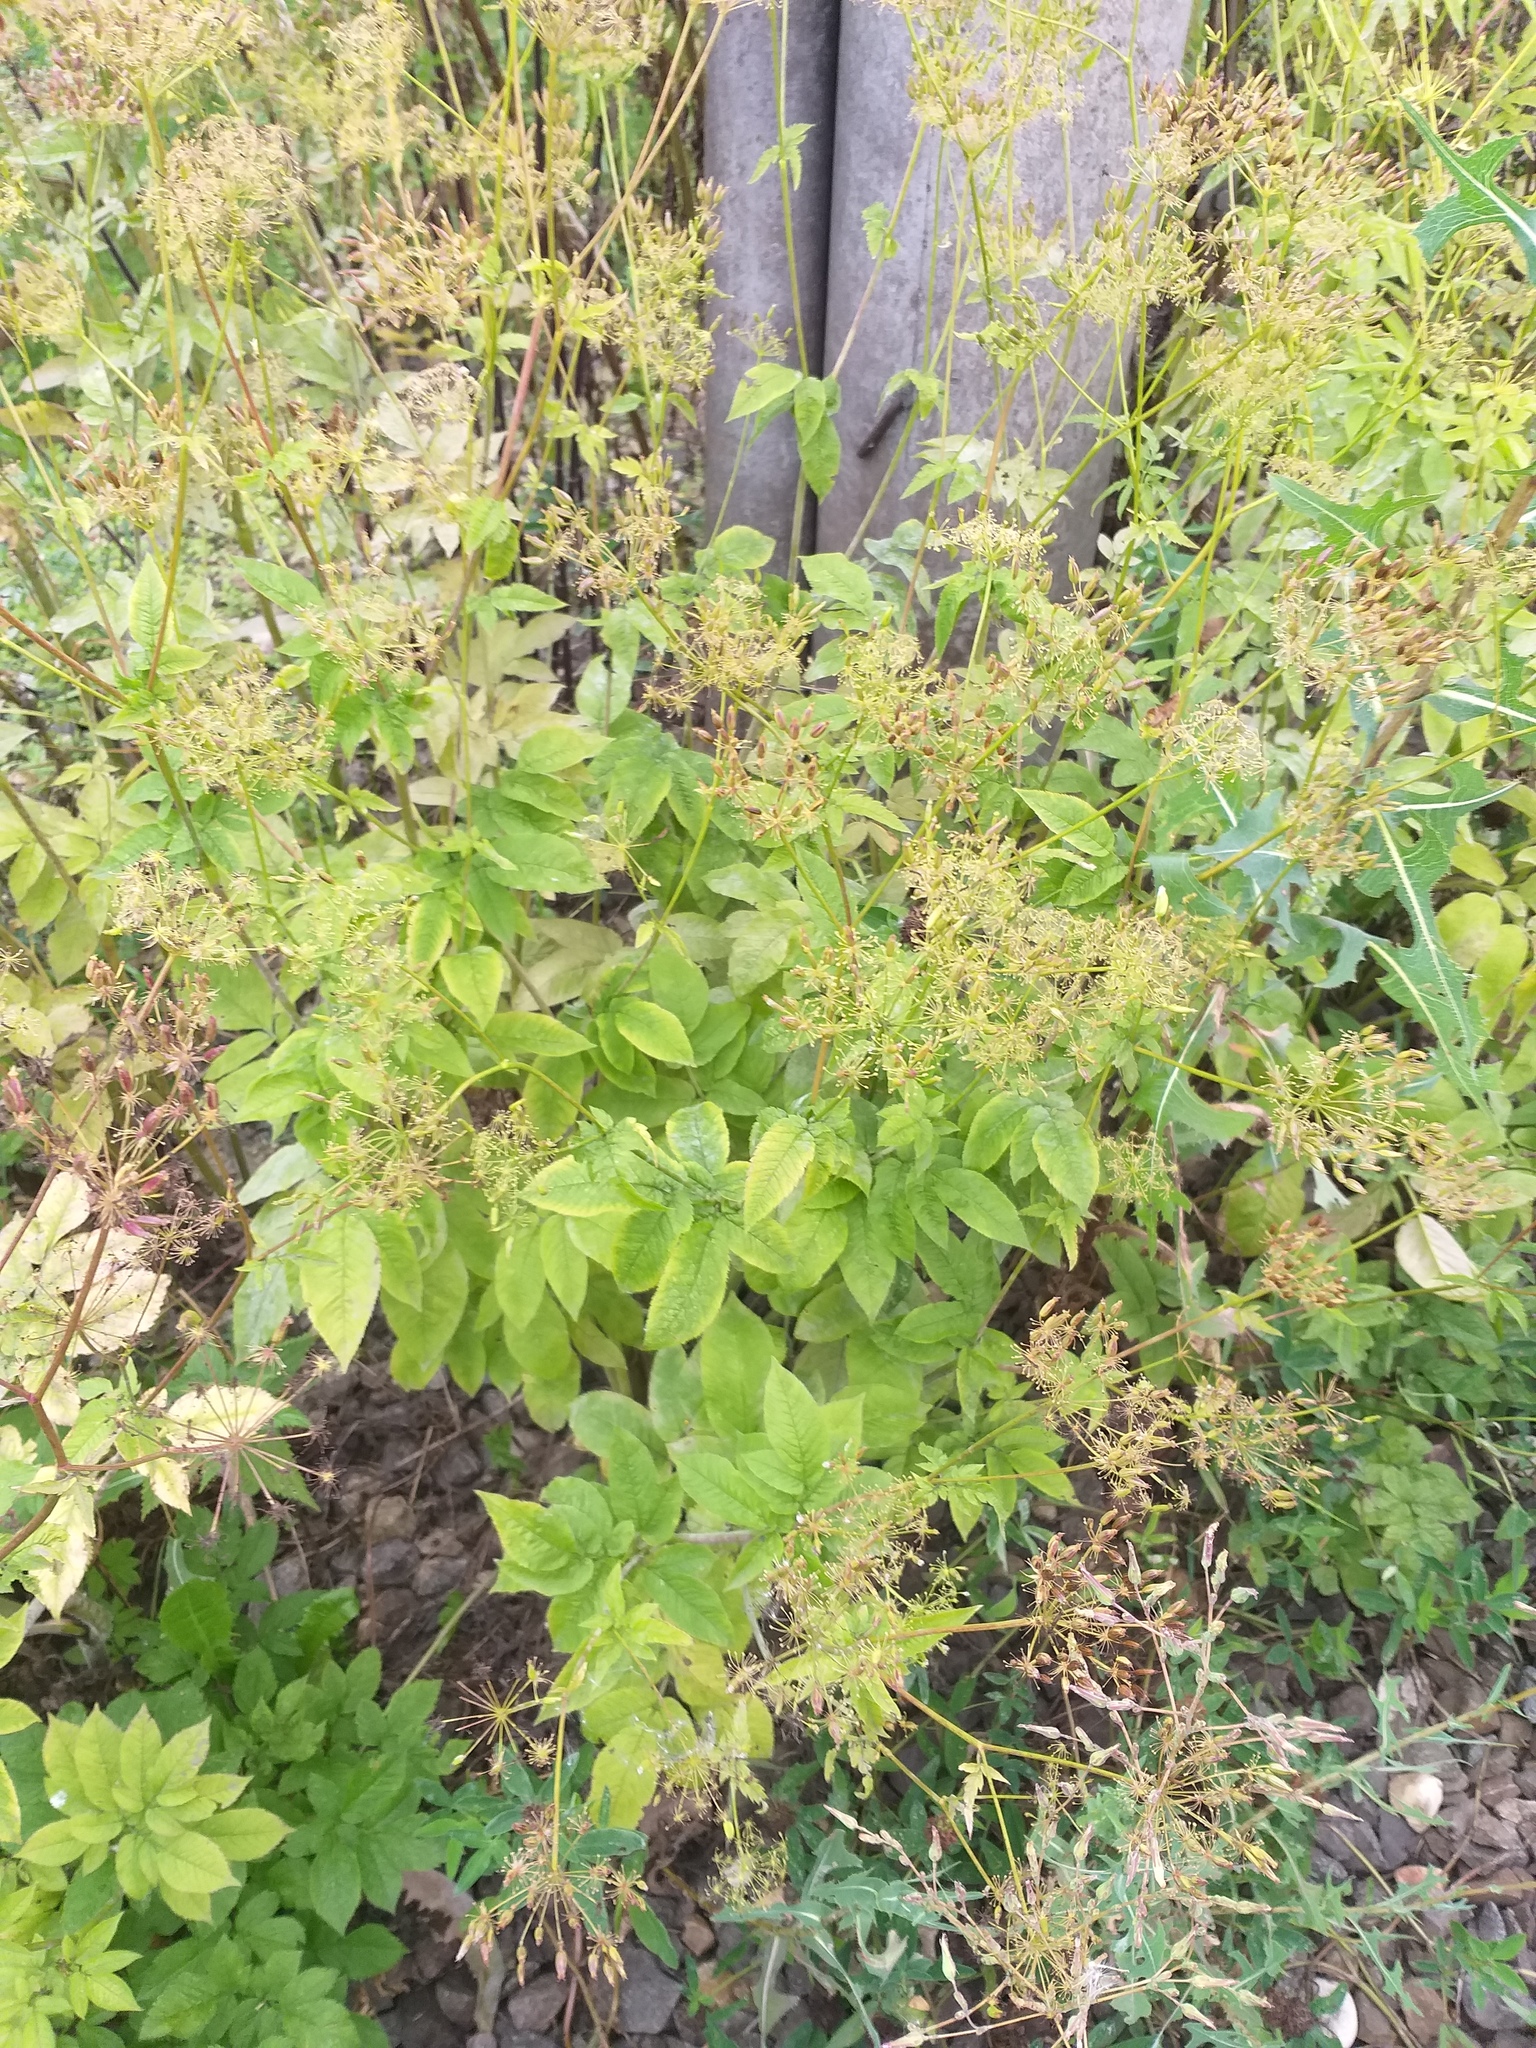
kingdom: Plantae
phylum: Tracheophyta
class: Magnoliopsida
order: Apiales
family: Apiaceae
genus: Chaerophyllum
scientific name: Chaerophyllum aromaticum
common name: Broadleaf chervil
